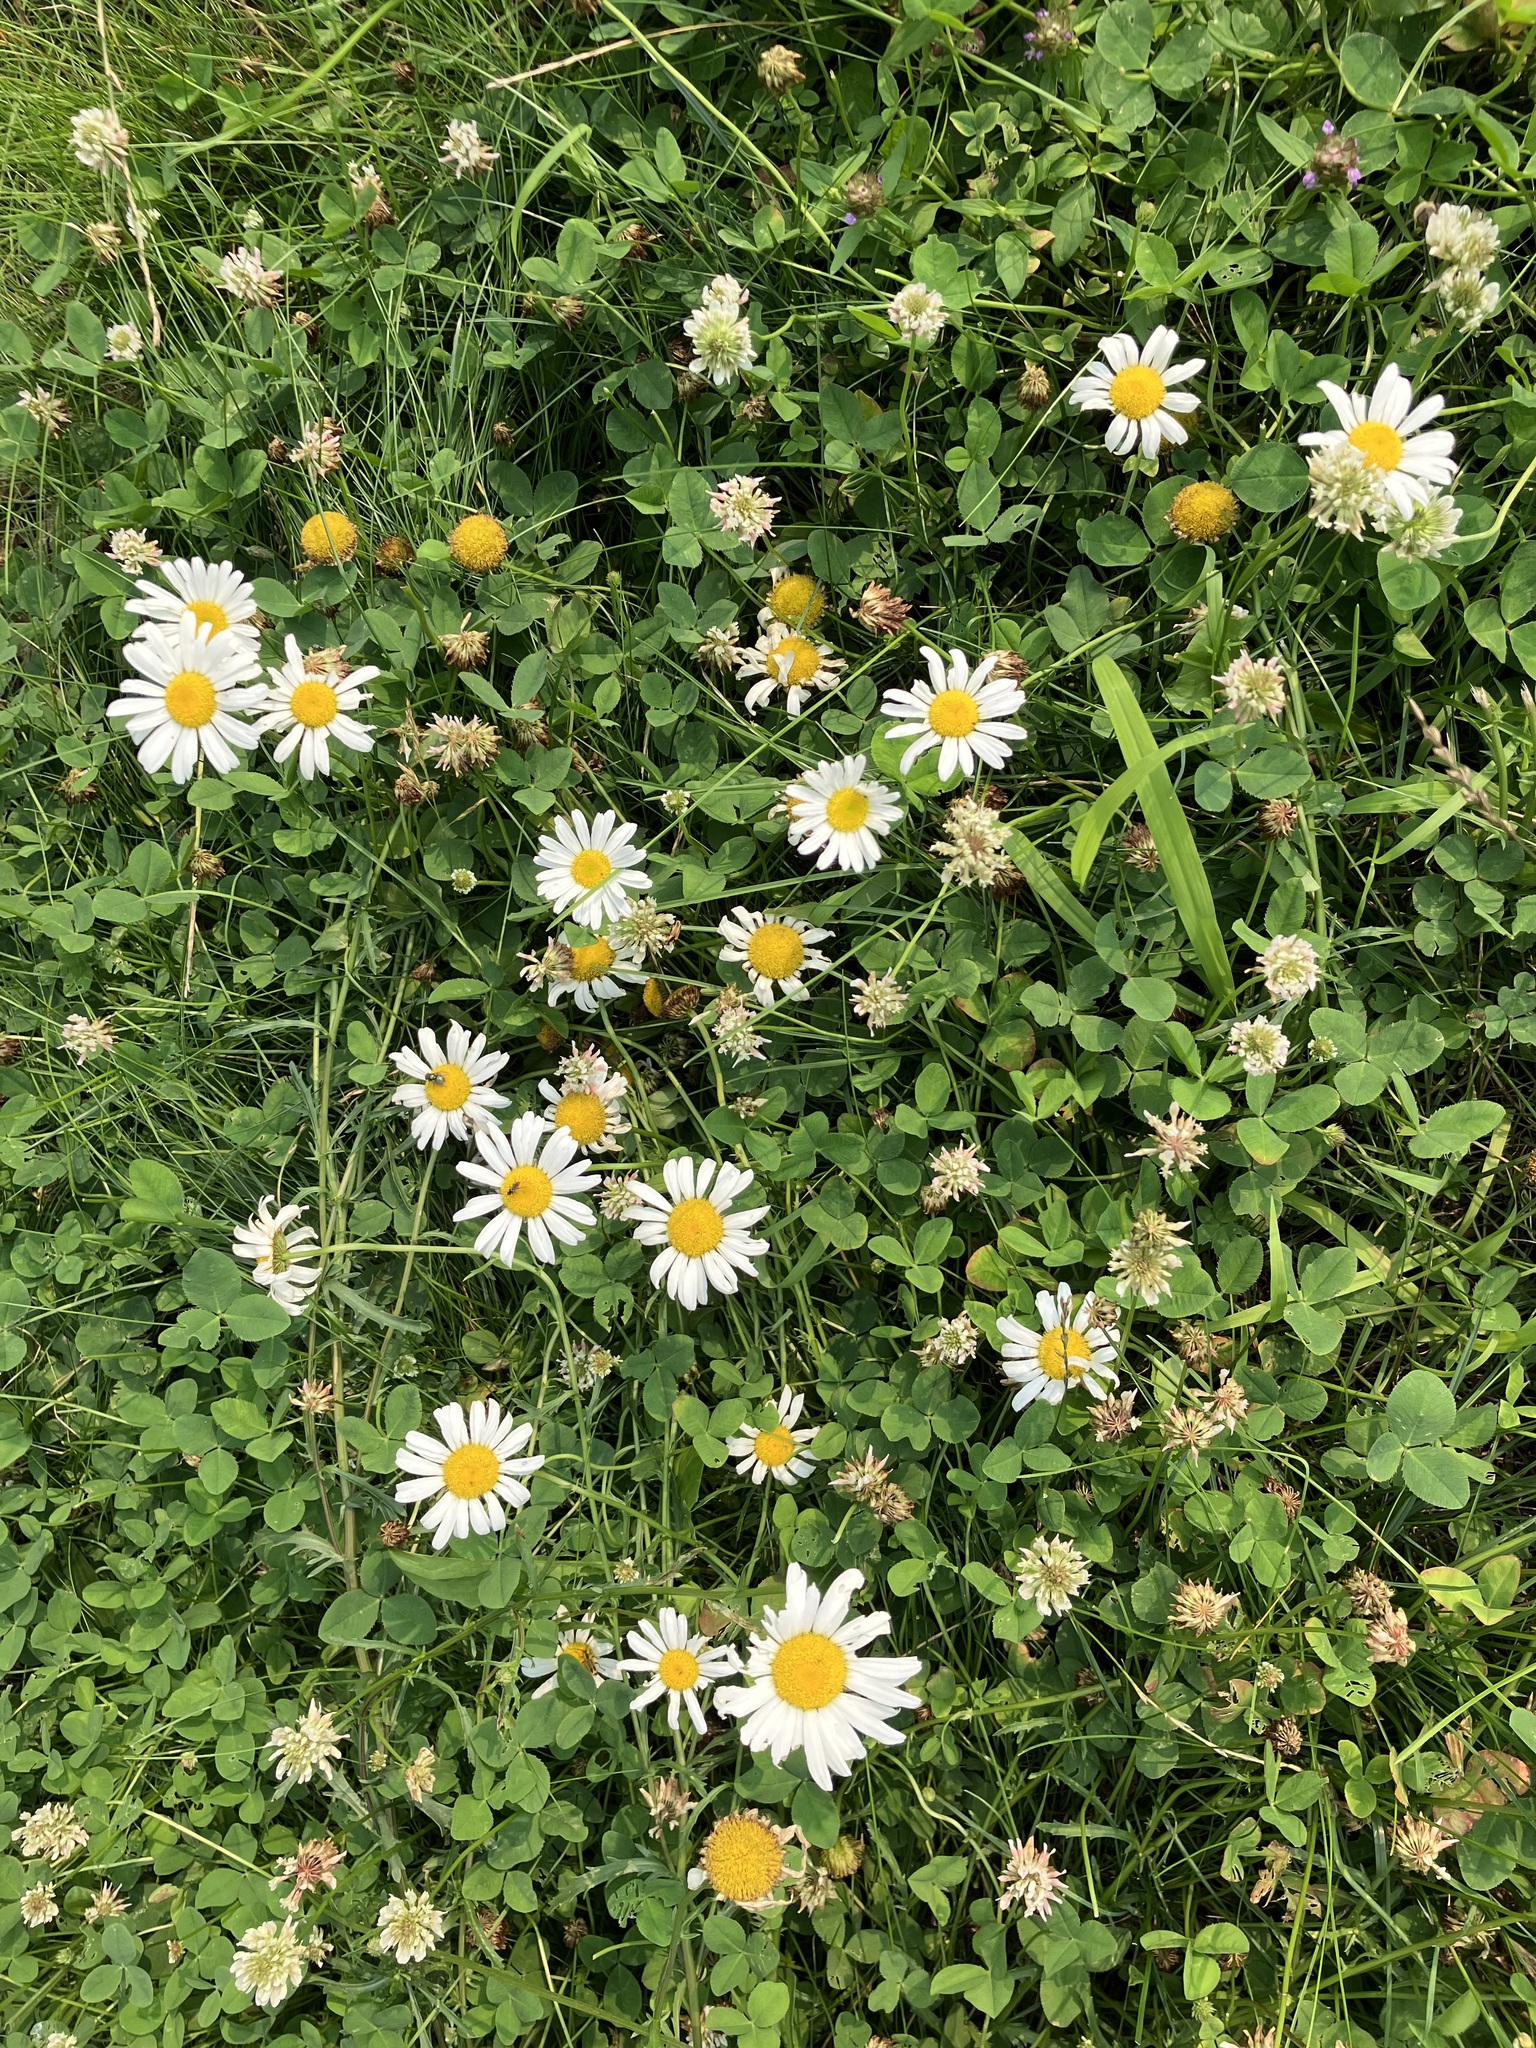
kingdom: Plantae
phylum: Tracheophyta
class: Magnoliopsida
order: Asterales
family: Asteraceae
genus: Leucanthemum
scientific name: Leucanthemum vulgare
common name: Oxeye daisy
